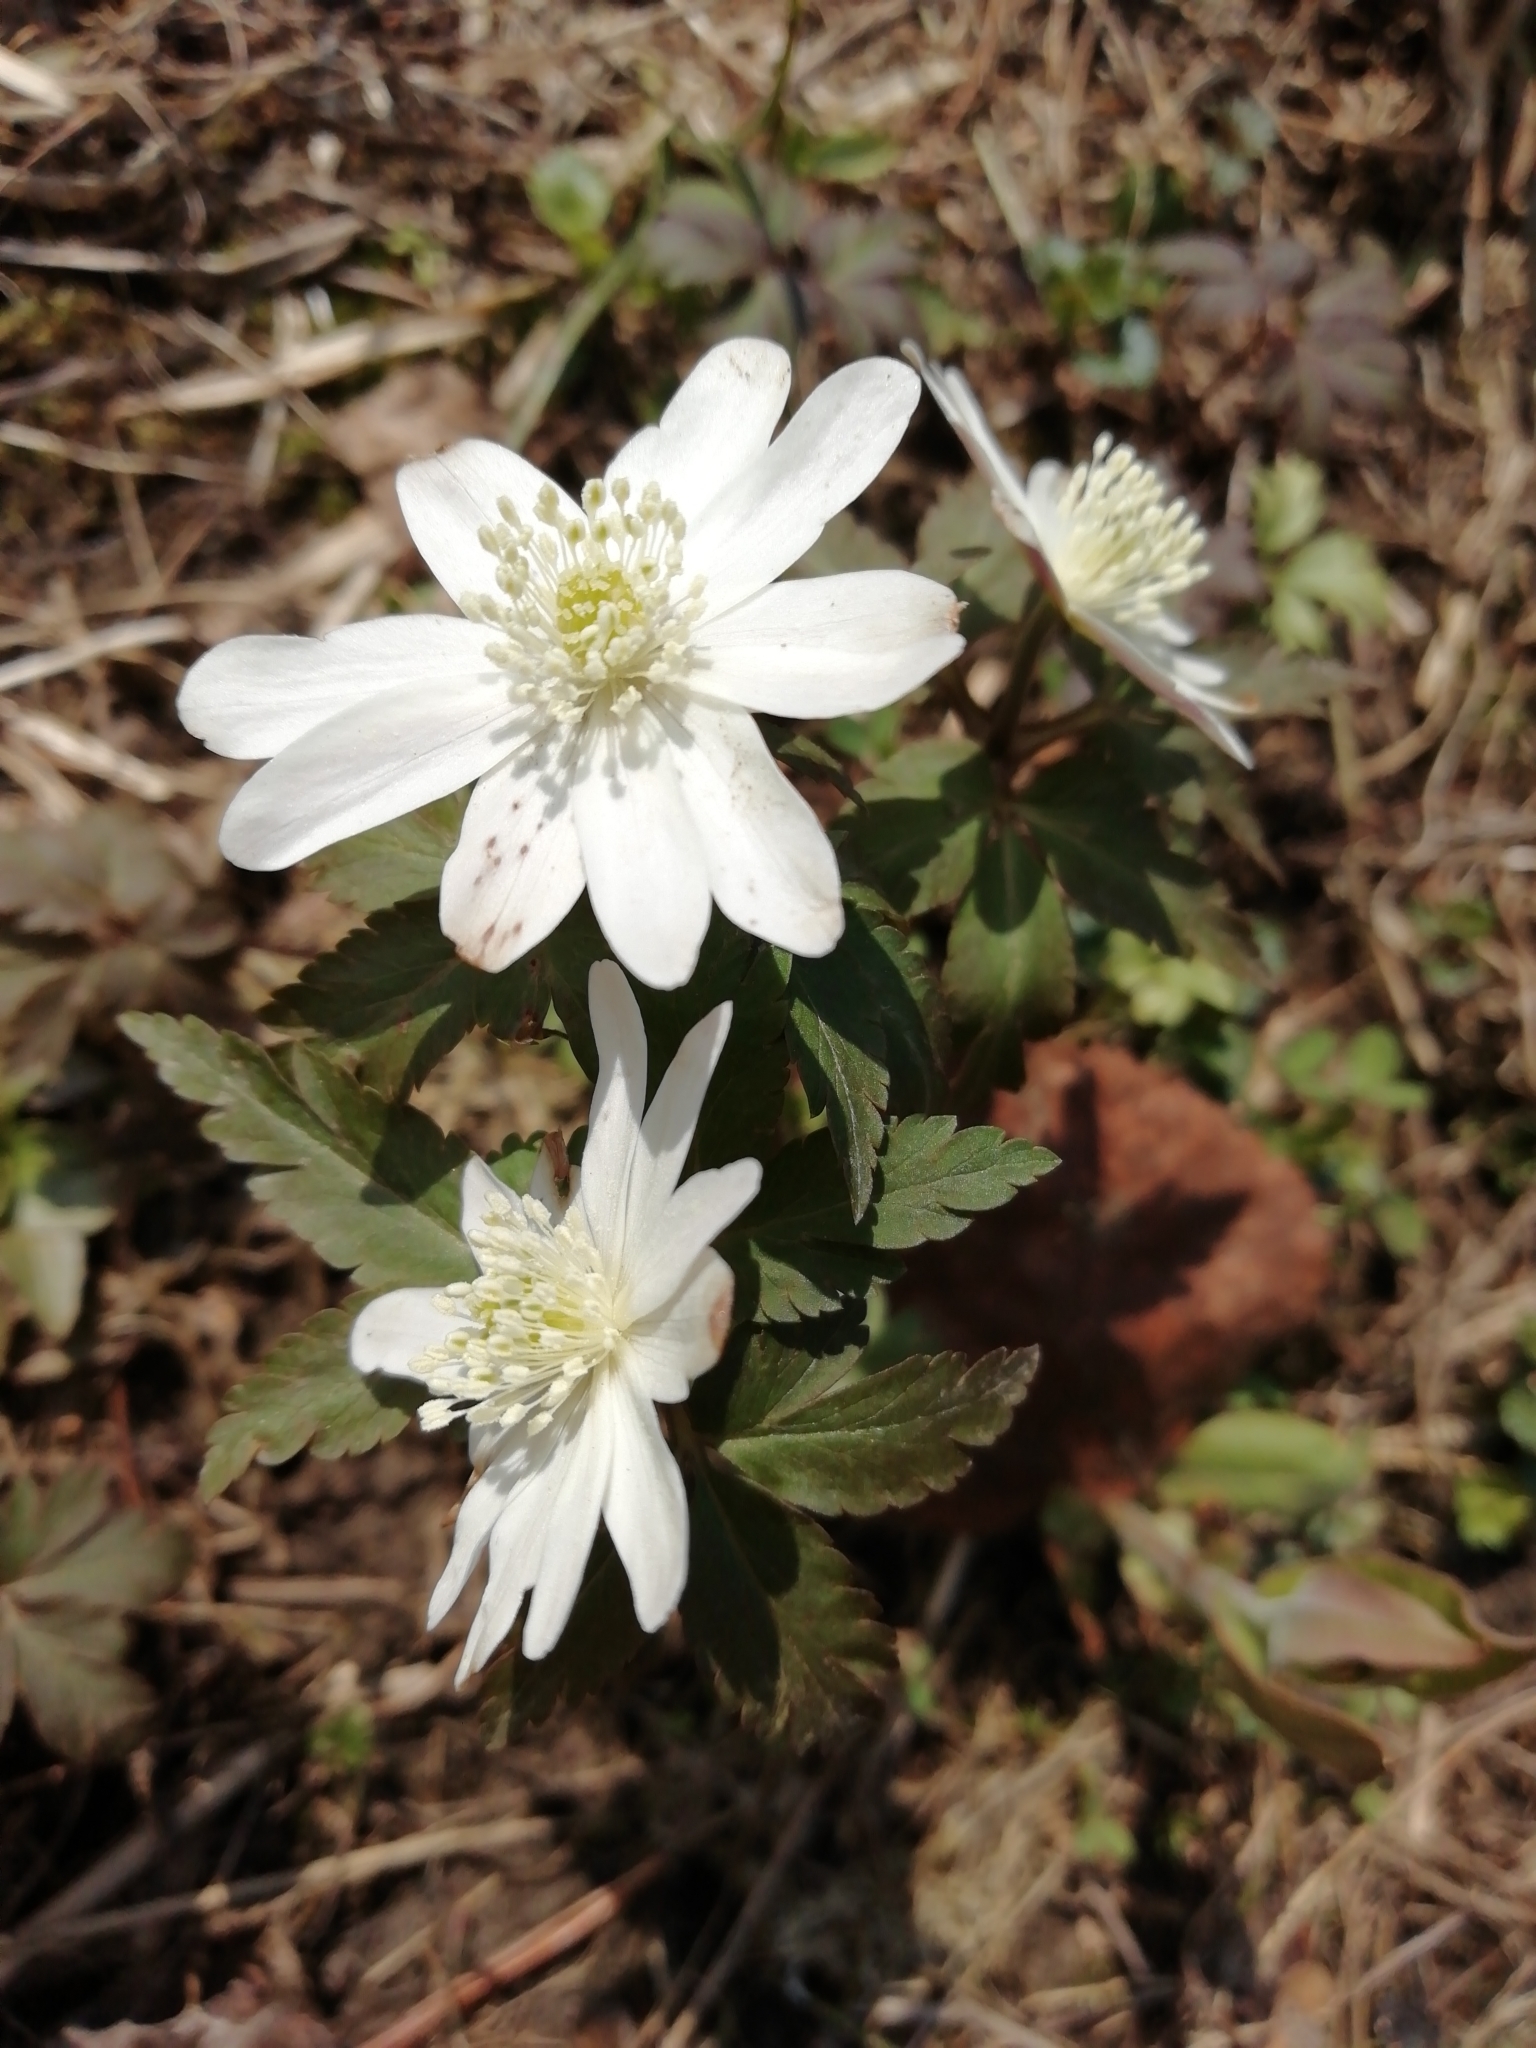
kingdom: Plantae
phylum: Tracheophyta
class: Magnoliopsida
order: Ranunculales
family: Ranunculaceae
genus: Anemone
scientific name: Anemone altaica
